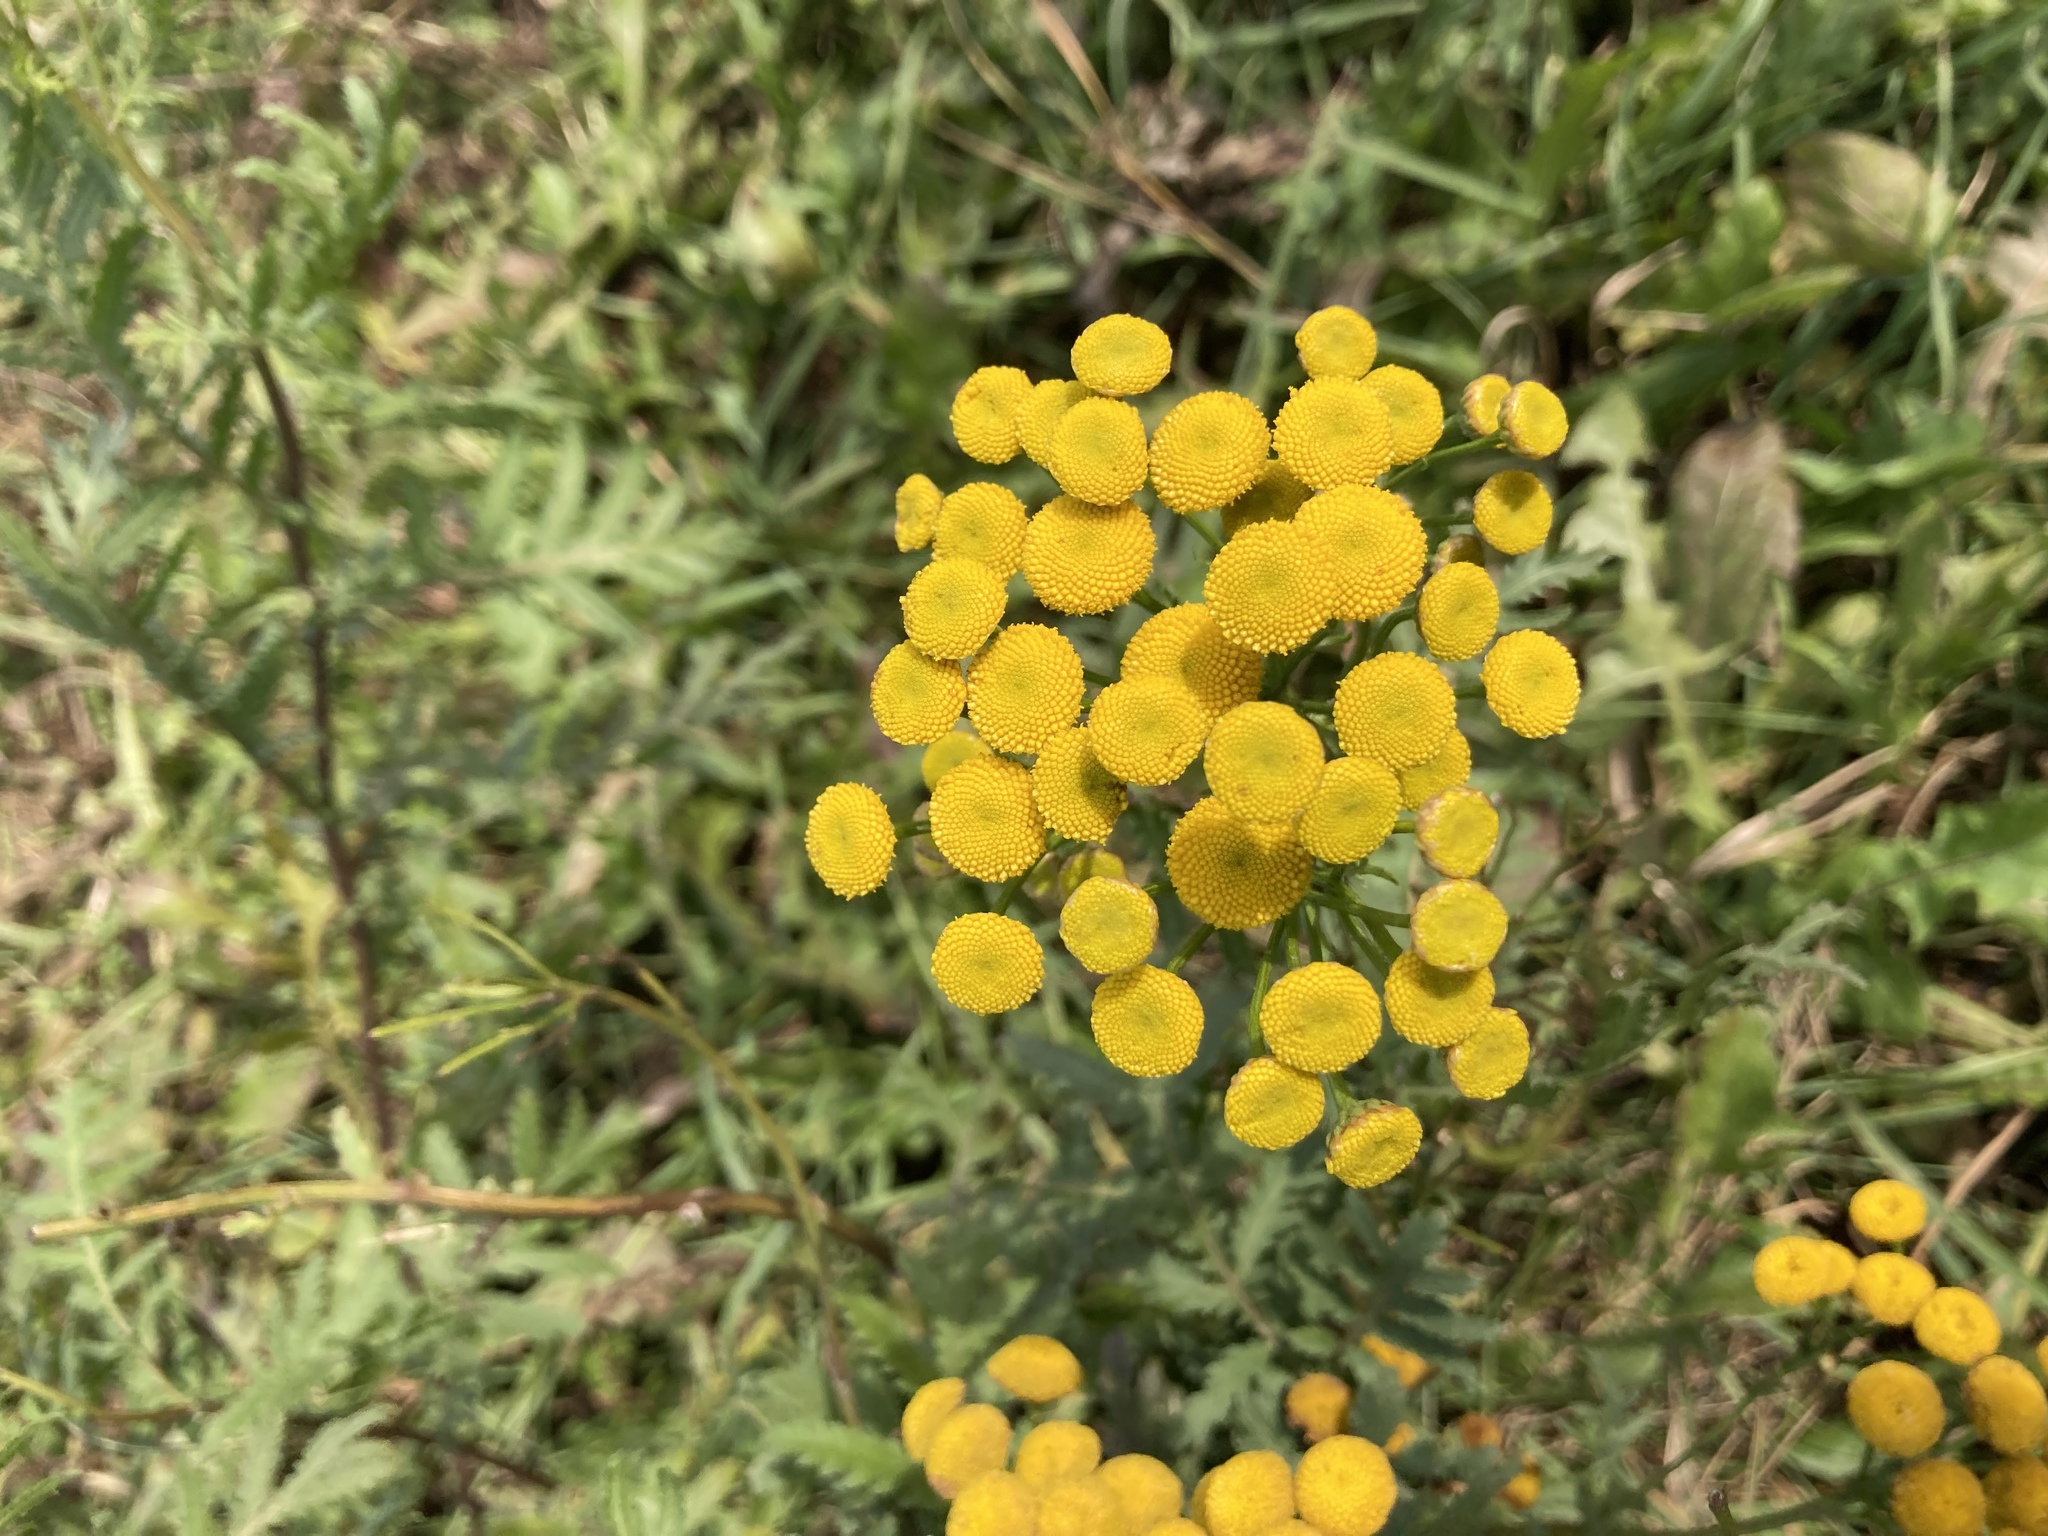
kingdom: Plantae
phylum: Tracheophyta
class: Magnoliopsida
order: Asterales
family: Asteraceae
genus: Tanacetum
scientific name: Tanacetum vulgare
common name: Common tansy
